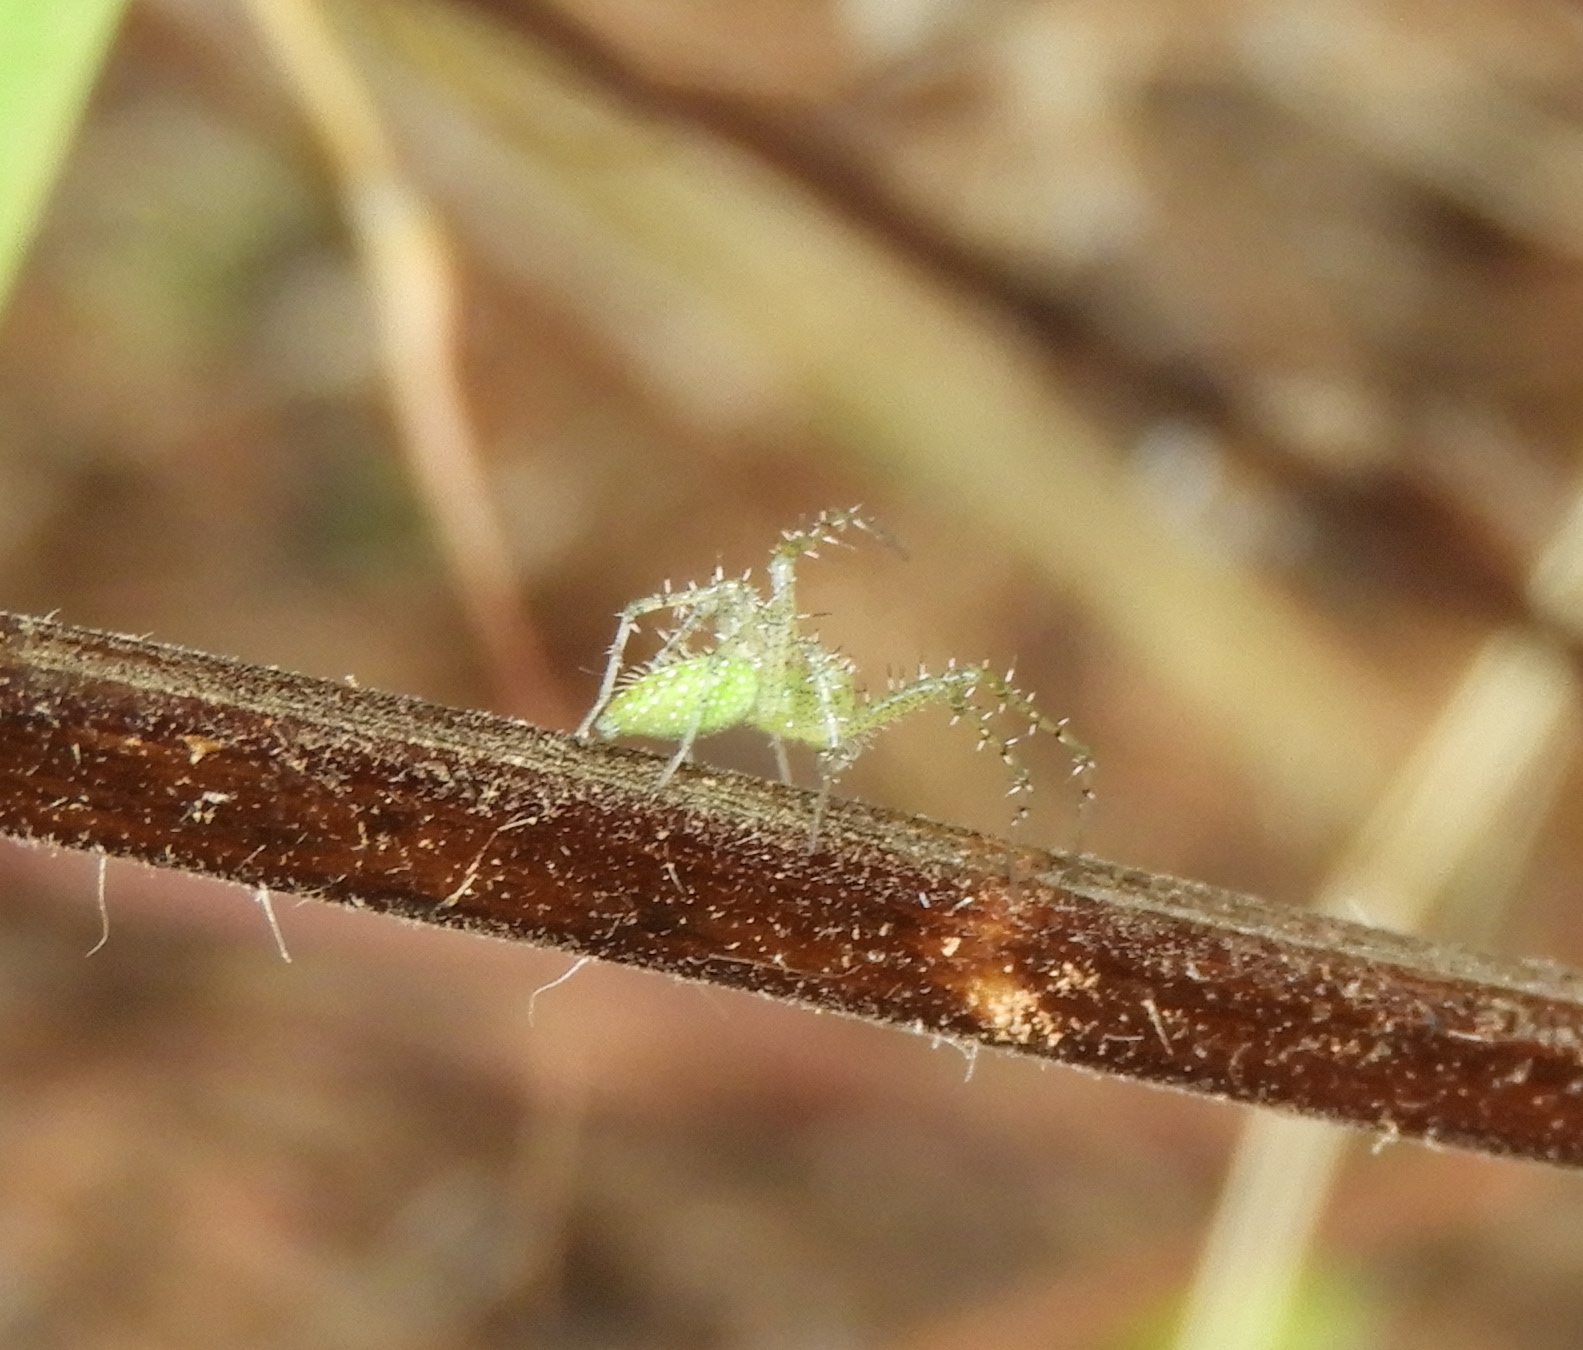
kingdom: Animalia
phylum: Arthropoda
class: Arachnida
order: Araneae
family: Oxyopidae
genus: Peucetia
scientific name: Peucetia
